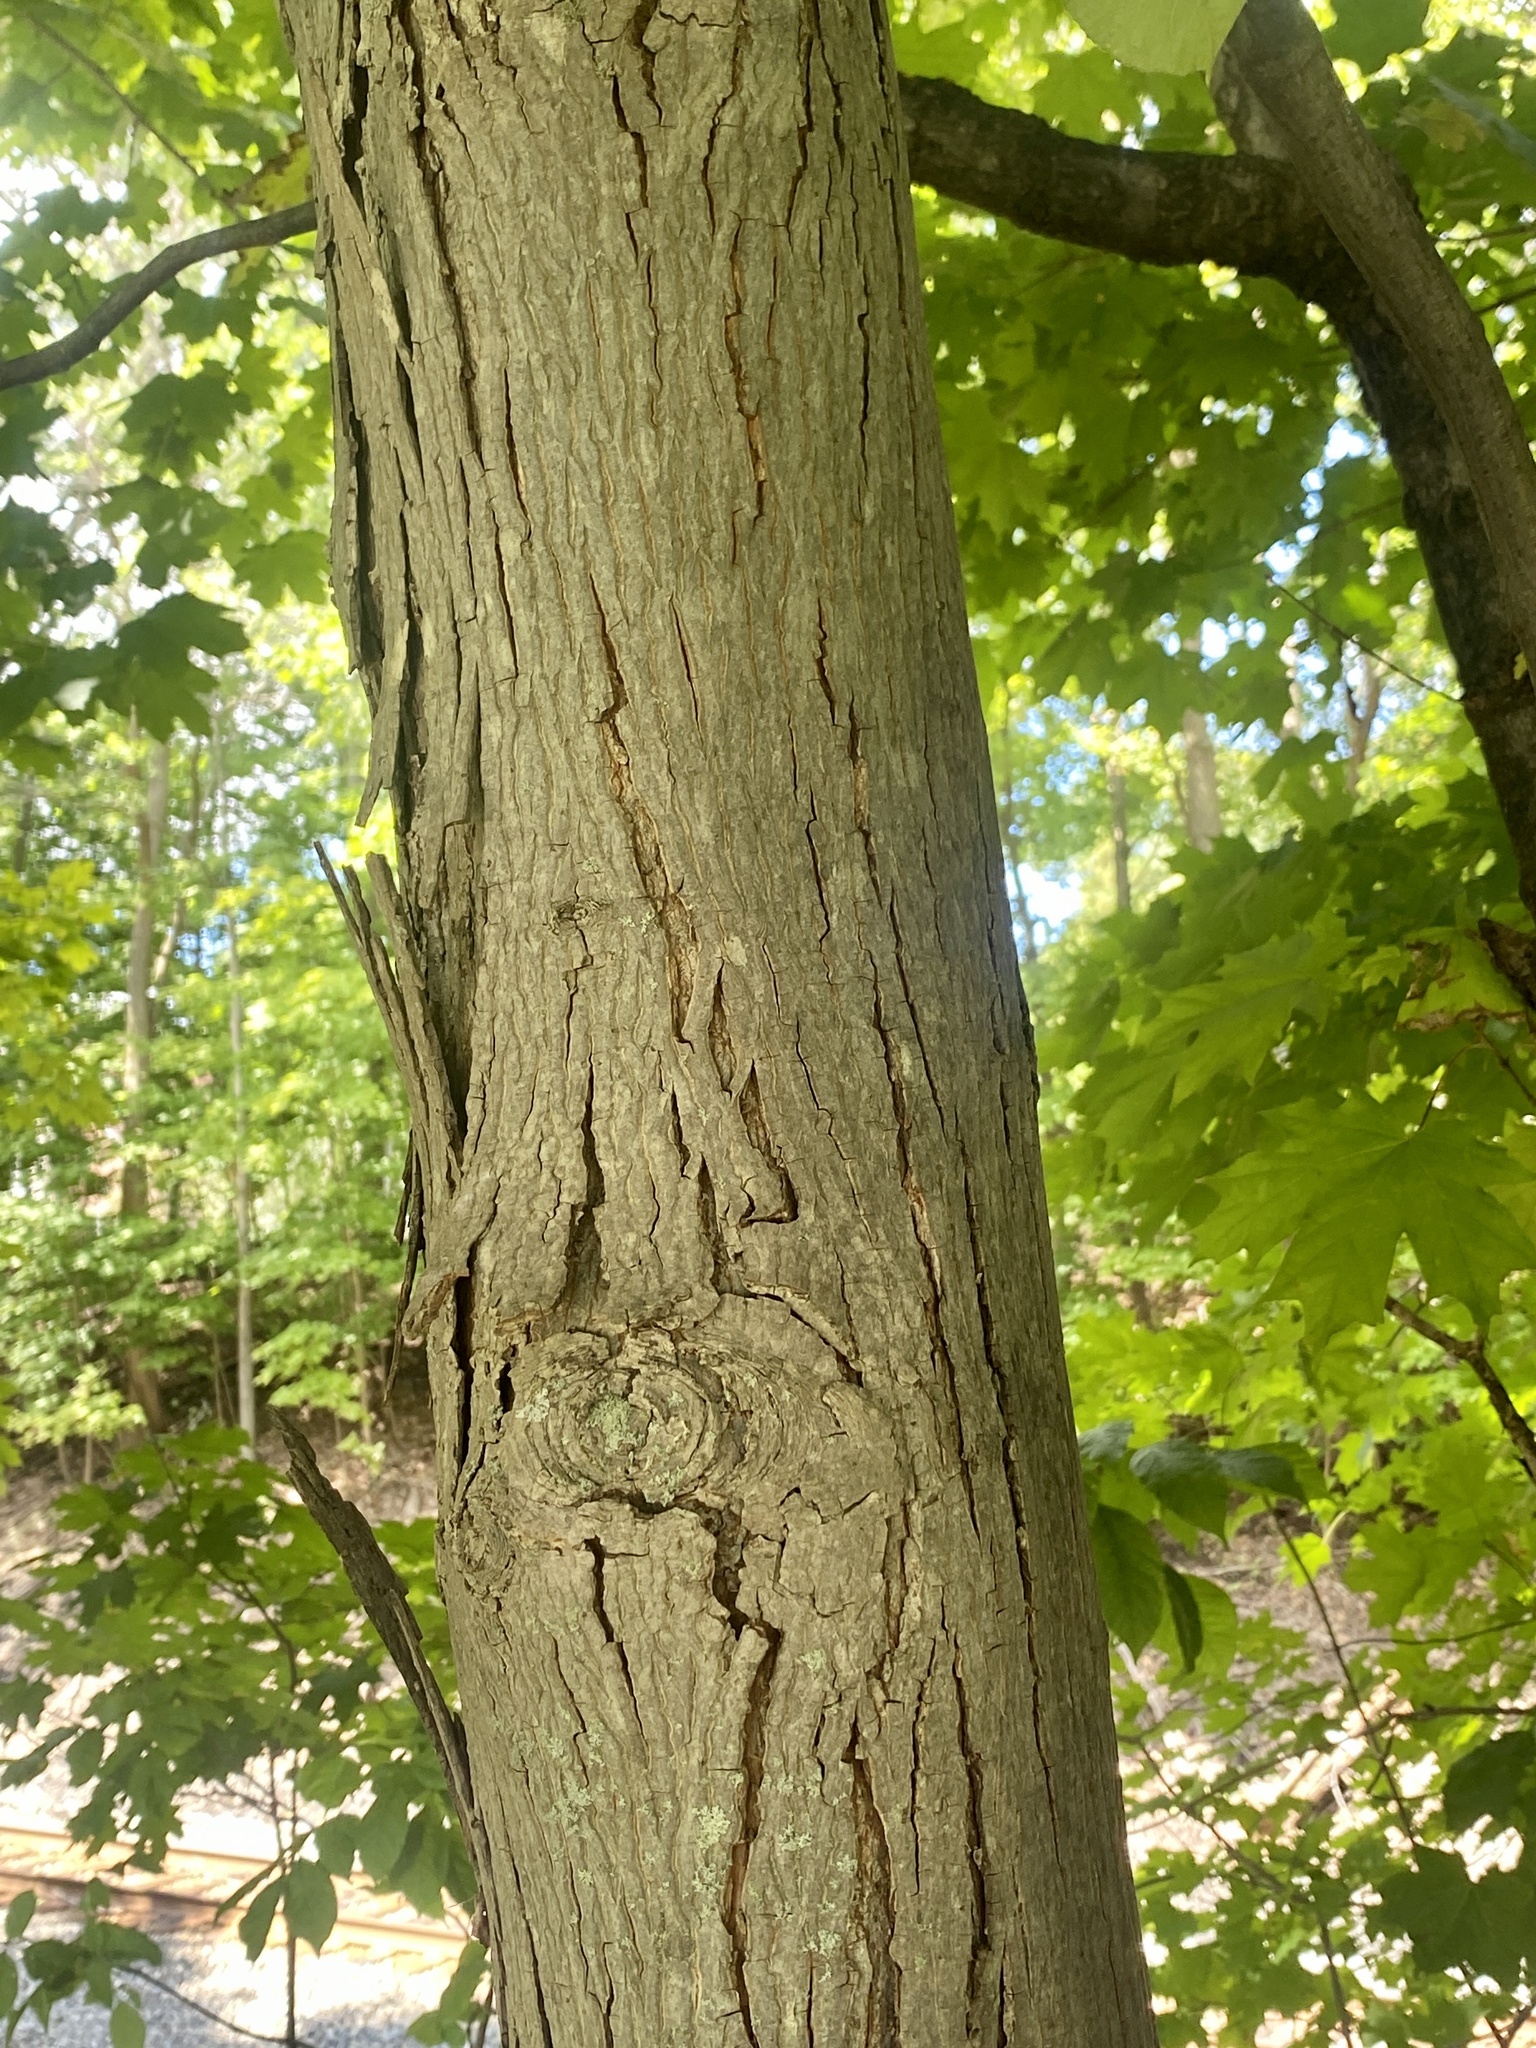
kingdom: Plantae
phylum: Tracheophyta
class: Magnoliopsida
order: Fagales
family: Juglandaceae
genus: Carya
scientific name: Carya ovata
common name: Shagbark hickory
